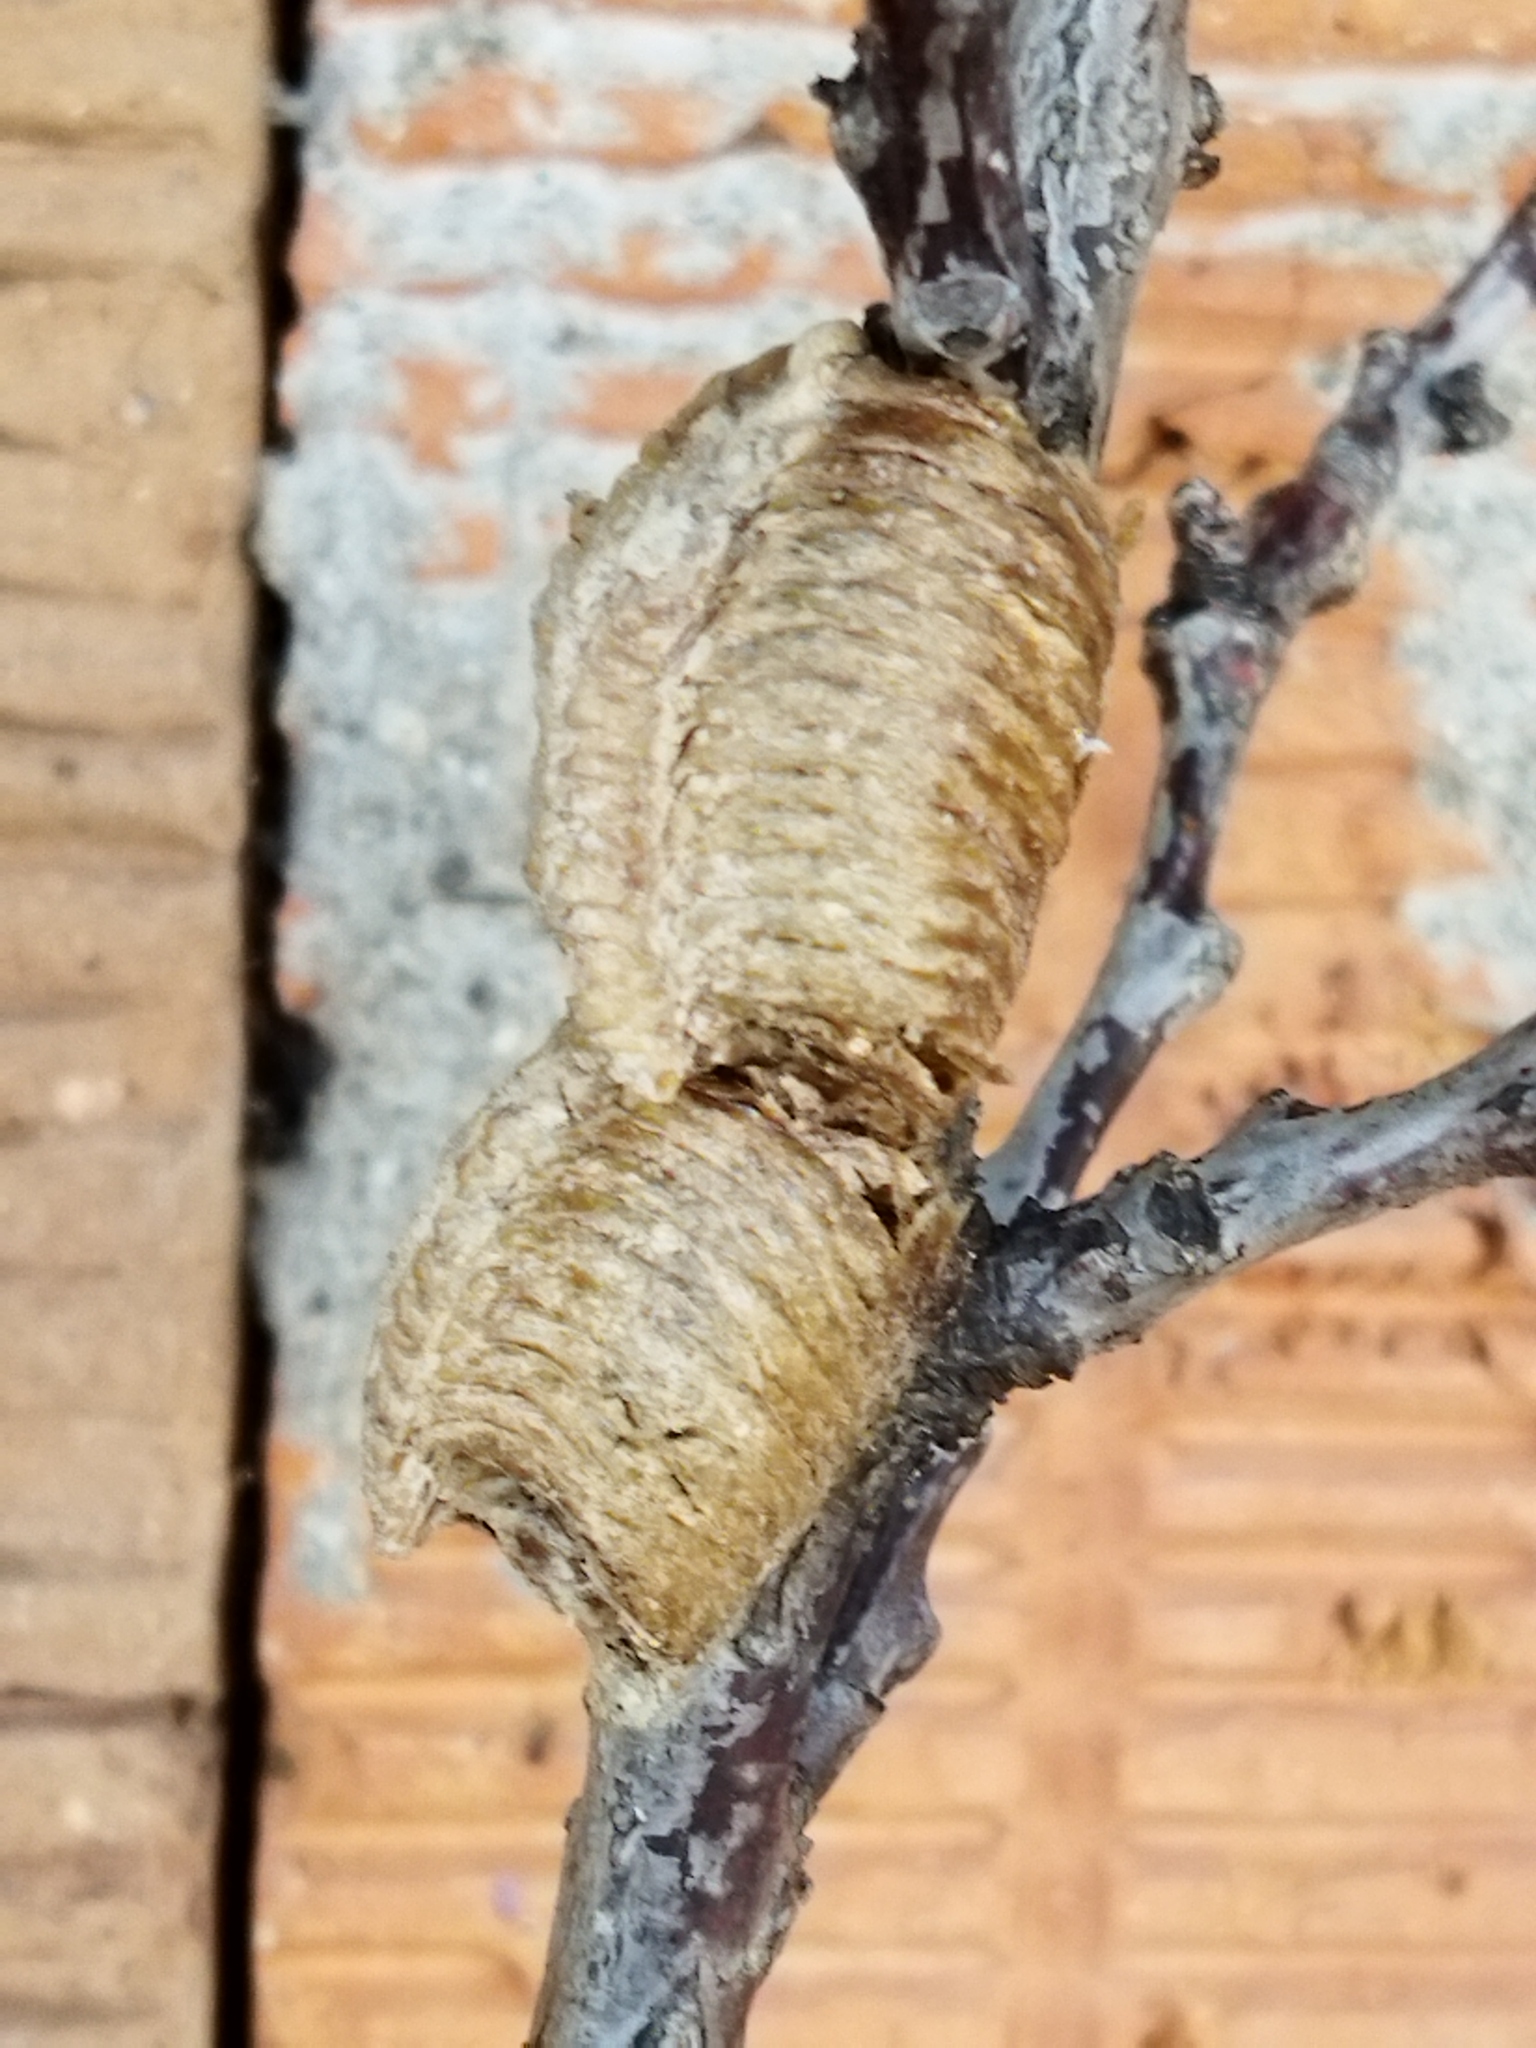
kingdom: Animalia
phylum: Arthropoda
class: Insecta
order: Mantodea
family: Mantidae
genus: Hierodula
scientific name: Hierodula transcaucasica
